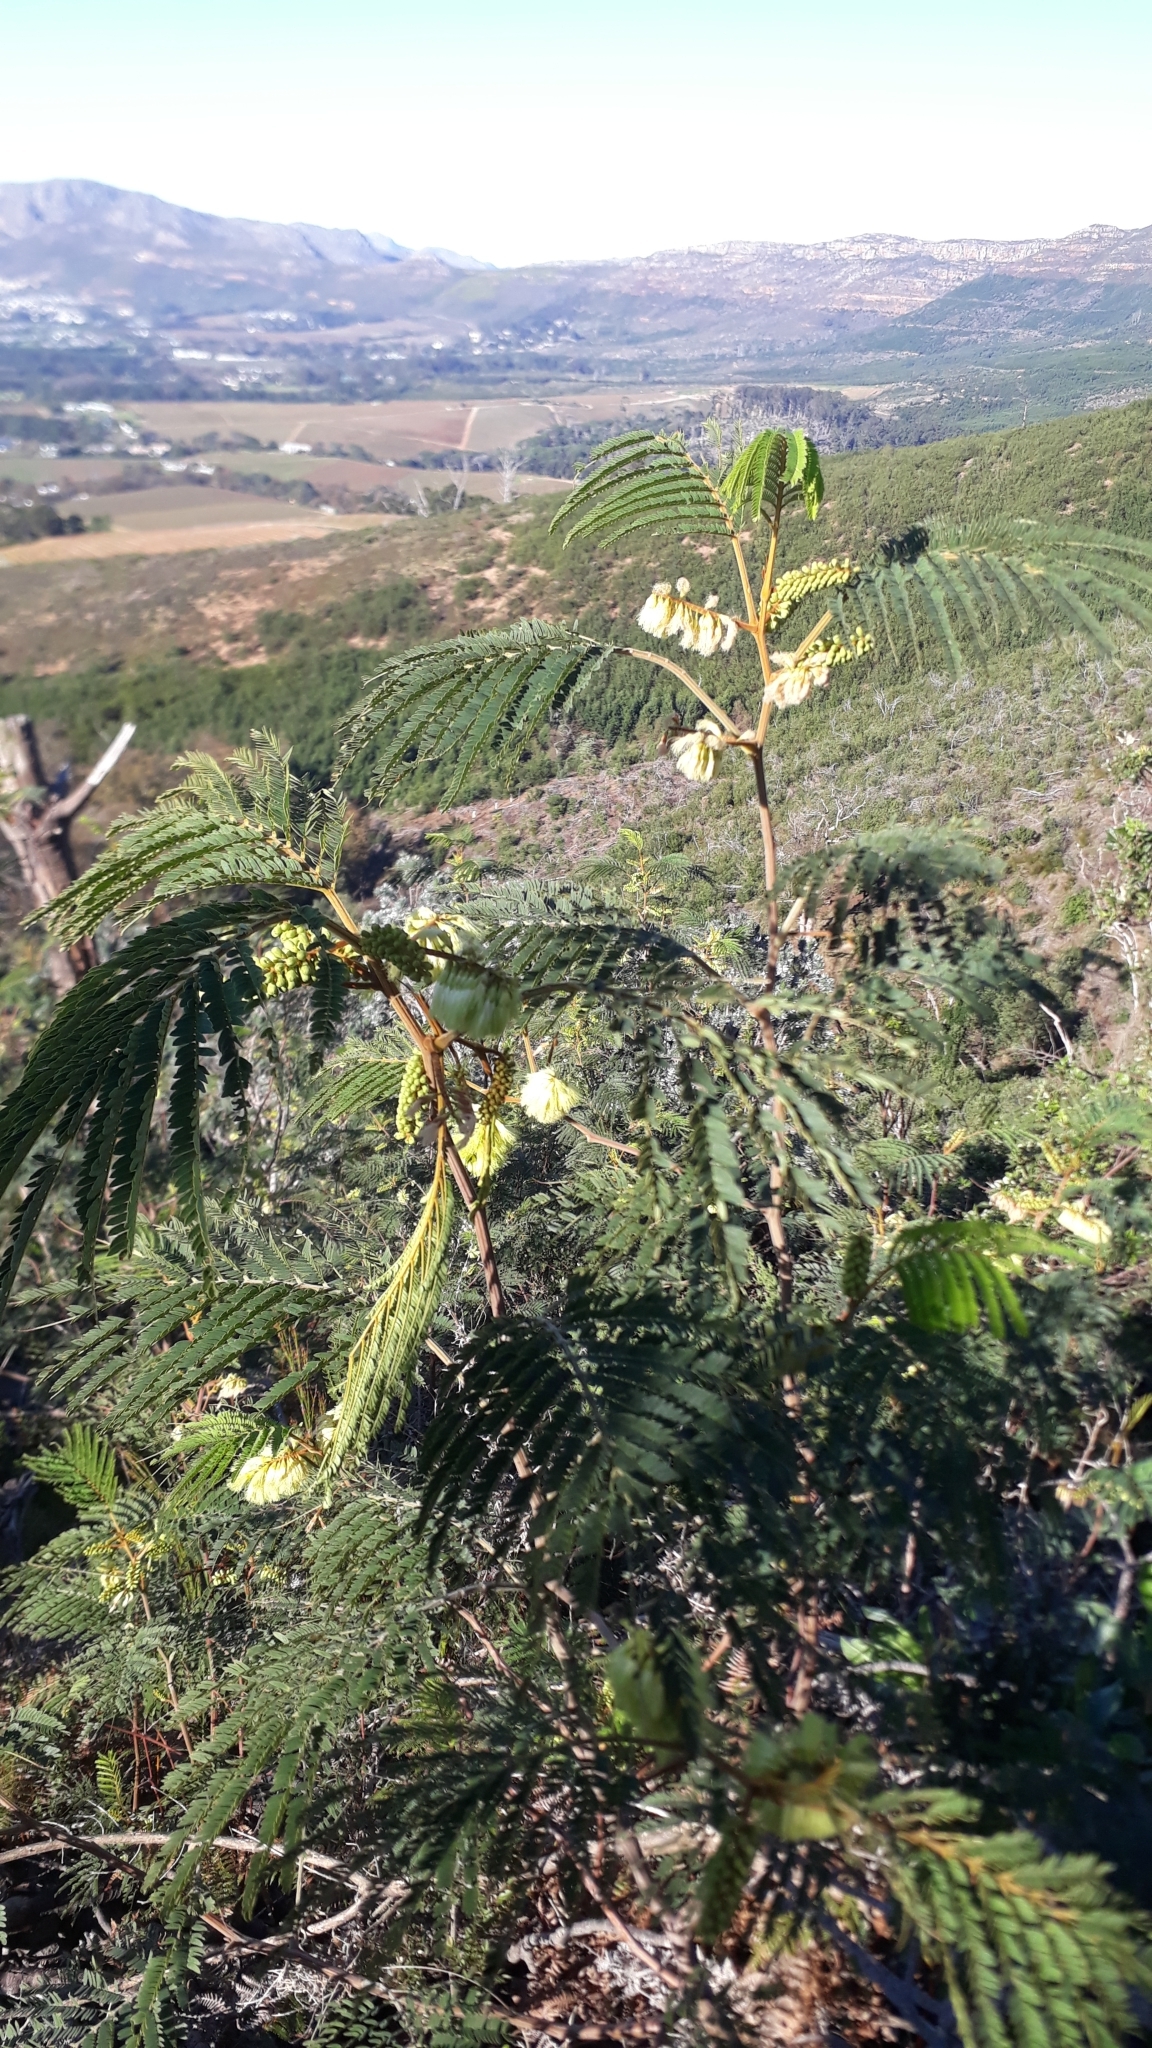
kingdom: Plantae
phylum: Tracheophyta
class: Magnoliopsida
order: Fabales
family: Fabaceae
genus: Paraserianthes
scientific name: Paraserianthes lophantha
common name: Plume albizia
